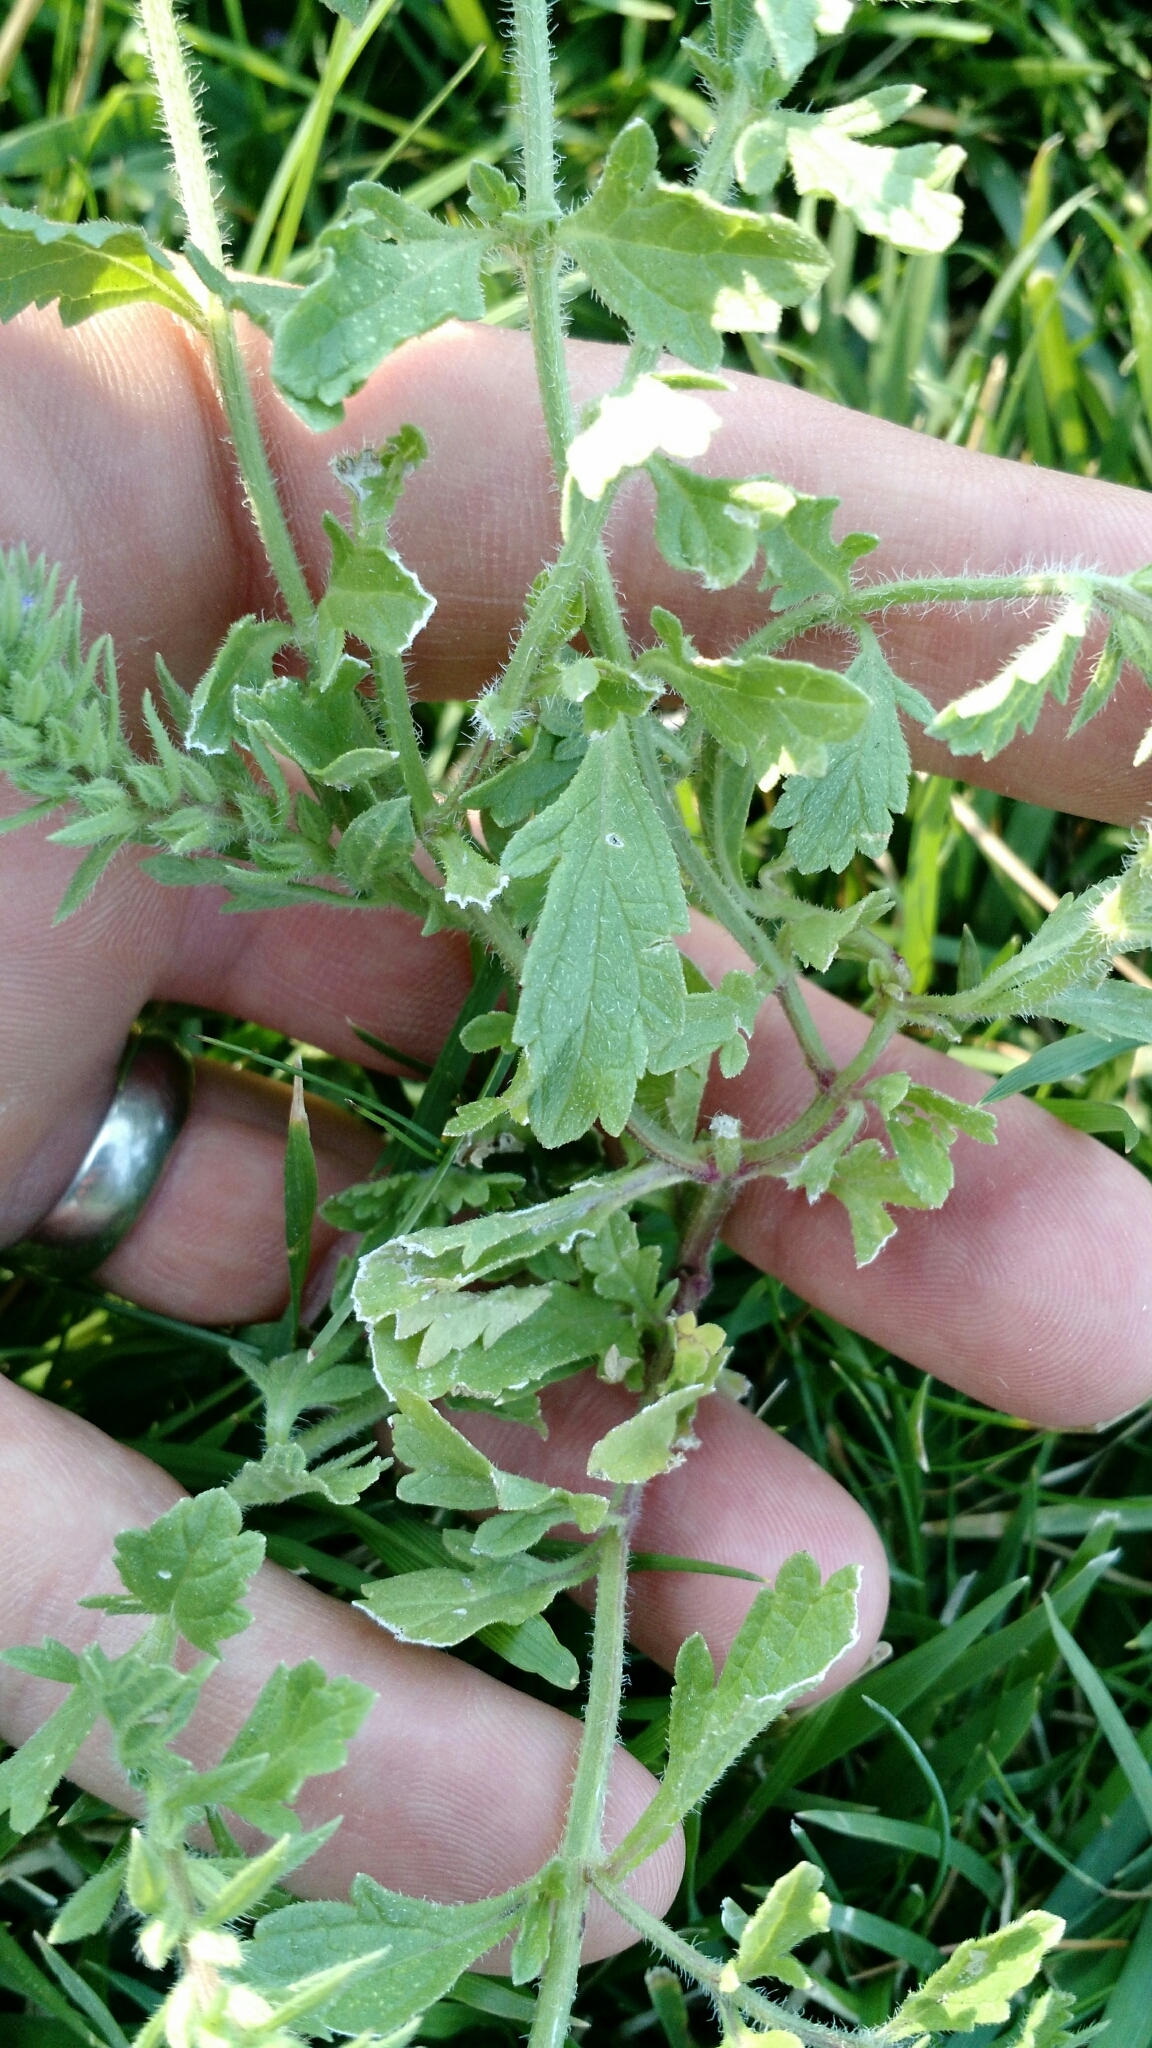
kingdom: Plantae
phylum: Tracheophyta
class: Magnoliopsida
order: Lamiales
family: Verbenaceae
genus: Verbena
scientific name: Verbena bracteata
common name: Bracted vervain
